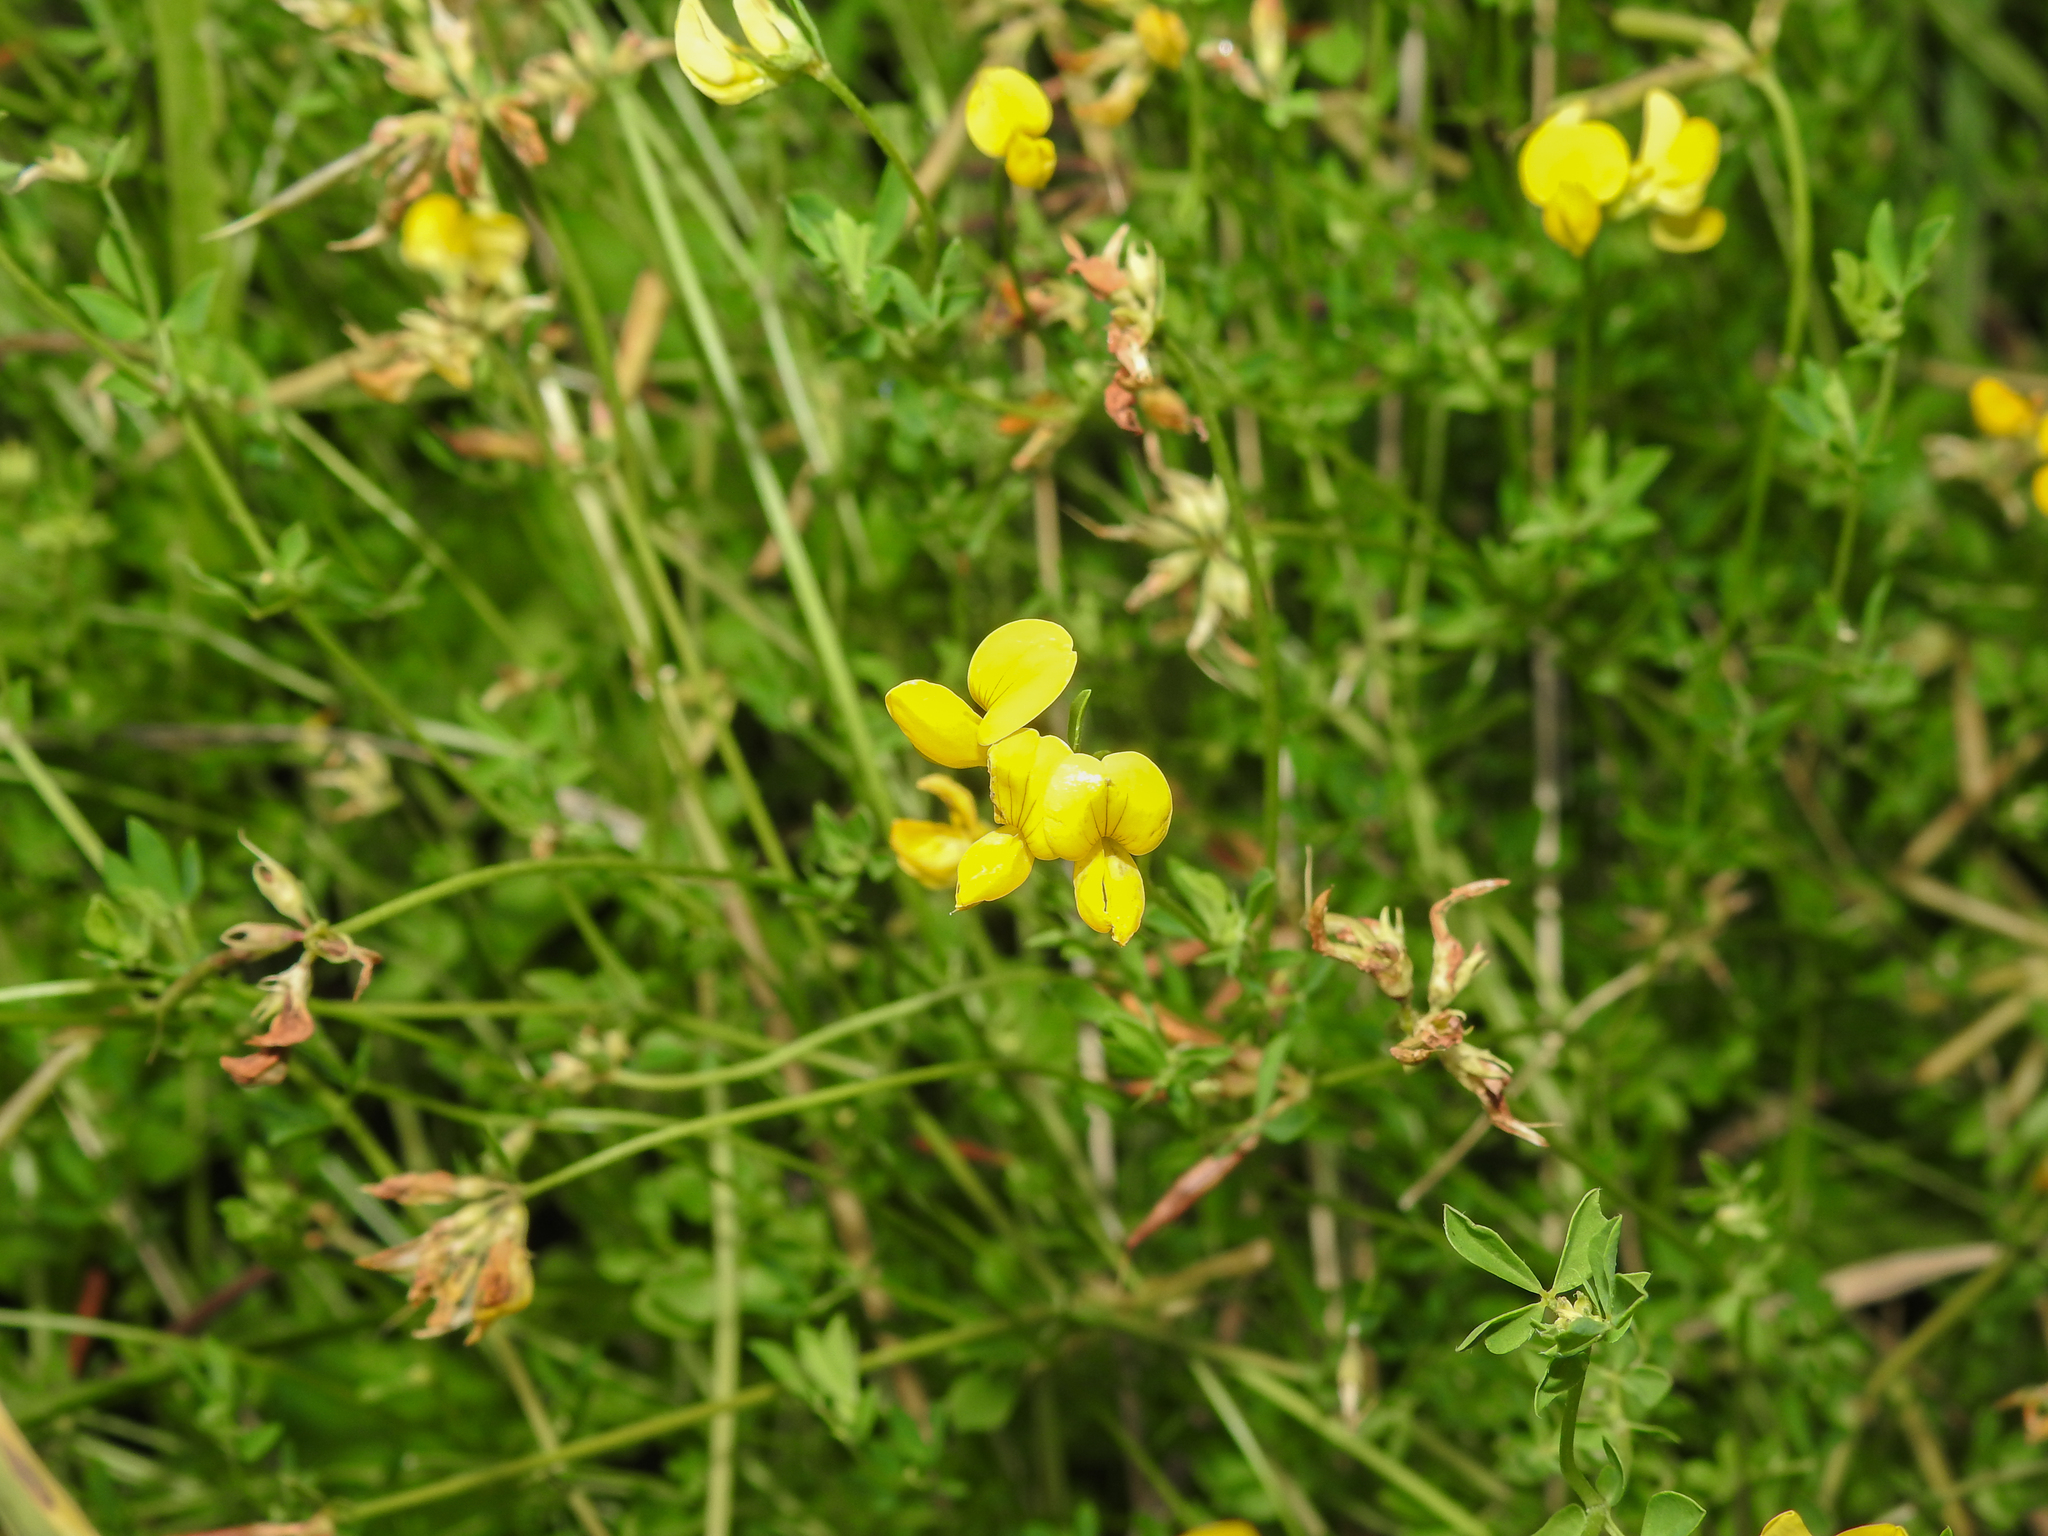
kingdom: Plantae
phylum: Tracheophyta
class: Magnoliopsida
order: Fabales
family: Fabaceae
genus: Lotus
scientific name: Lotus corniculatus
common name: Common bird's-foot-trefoil
